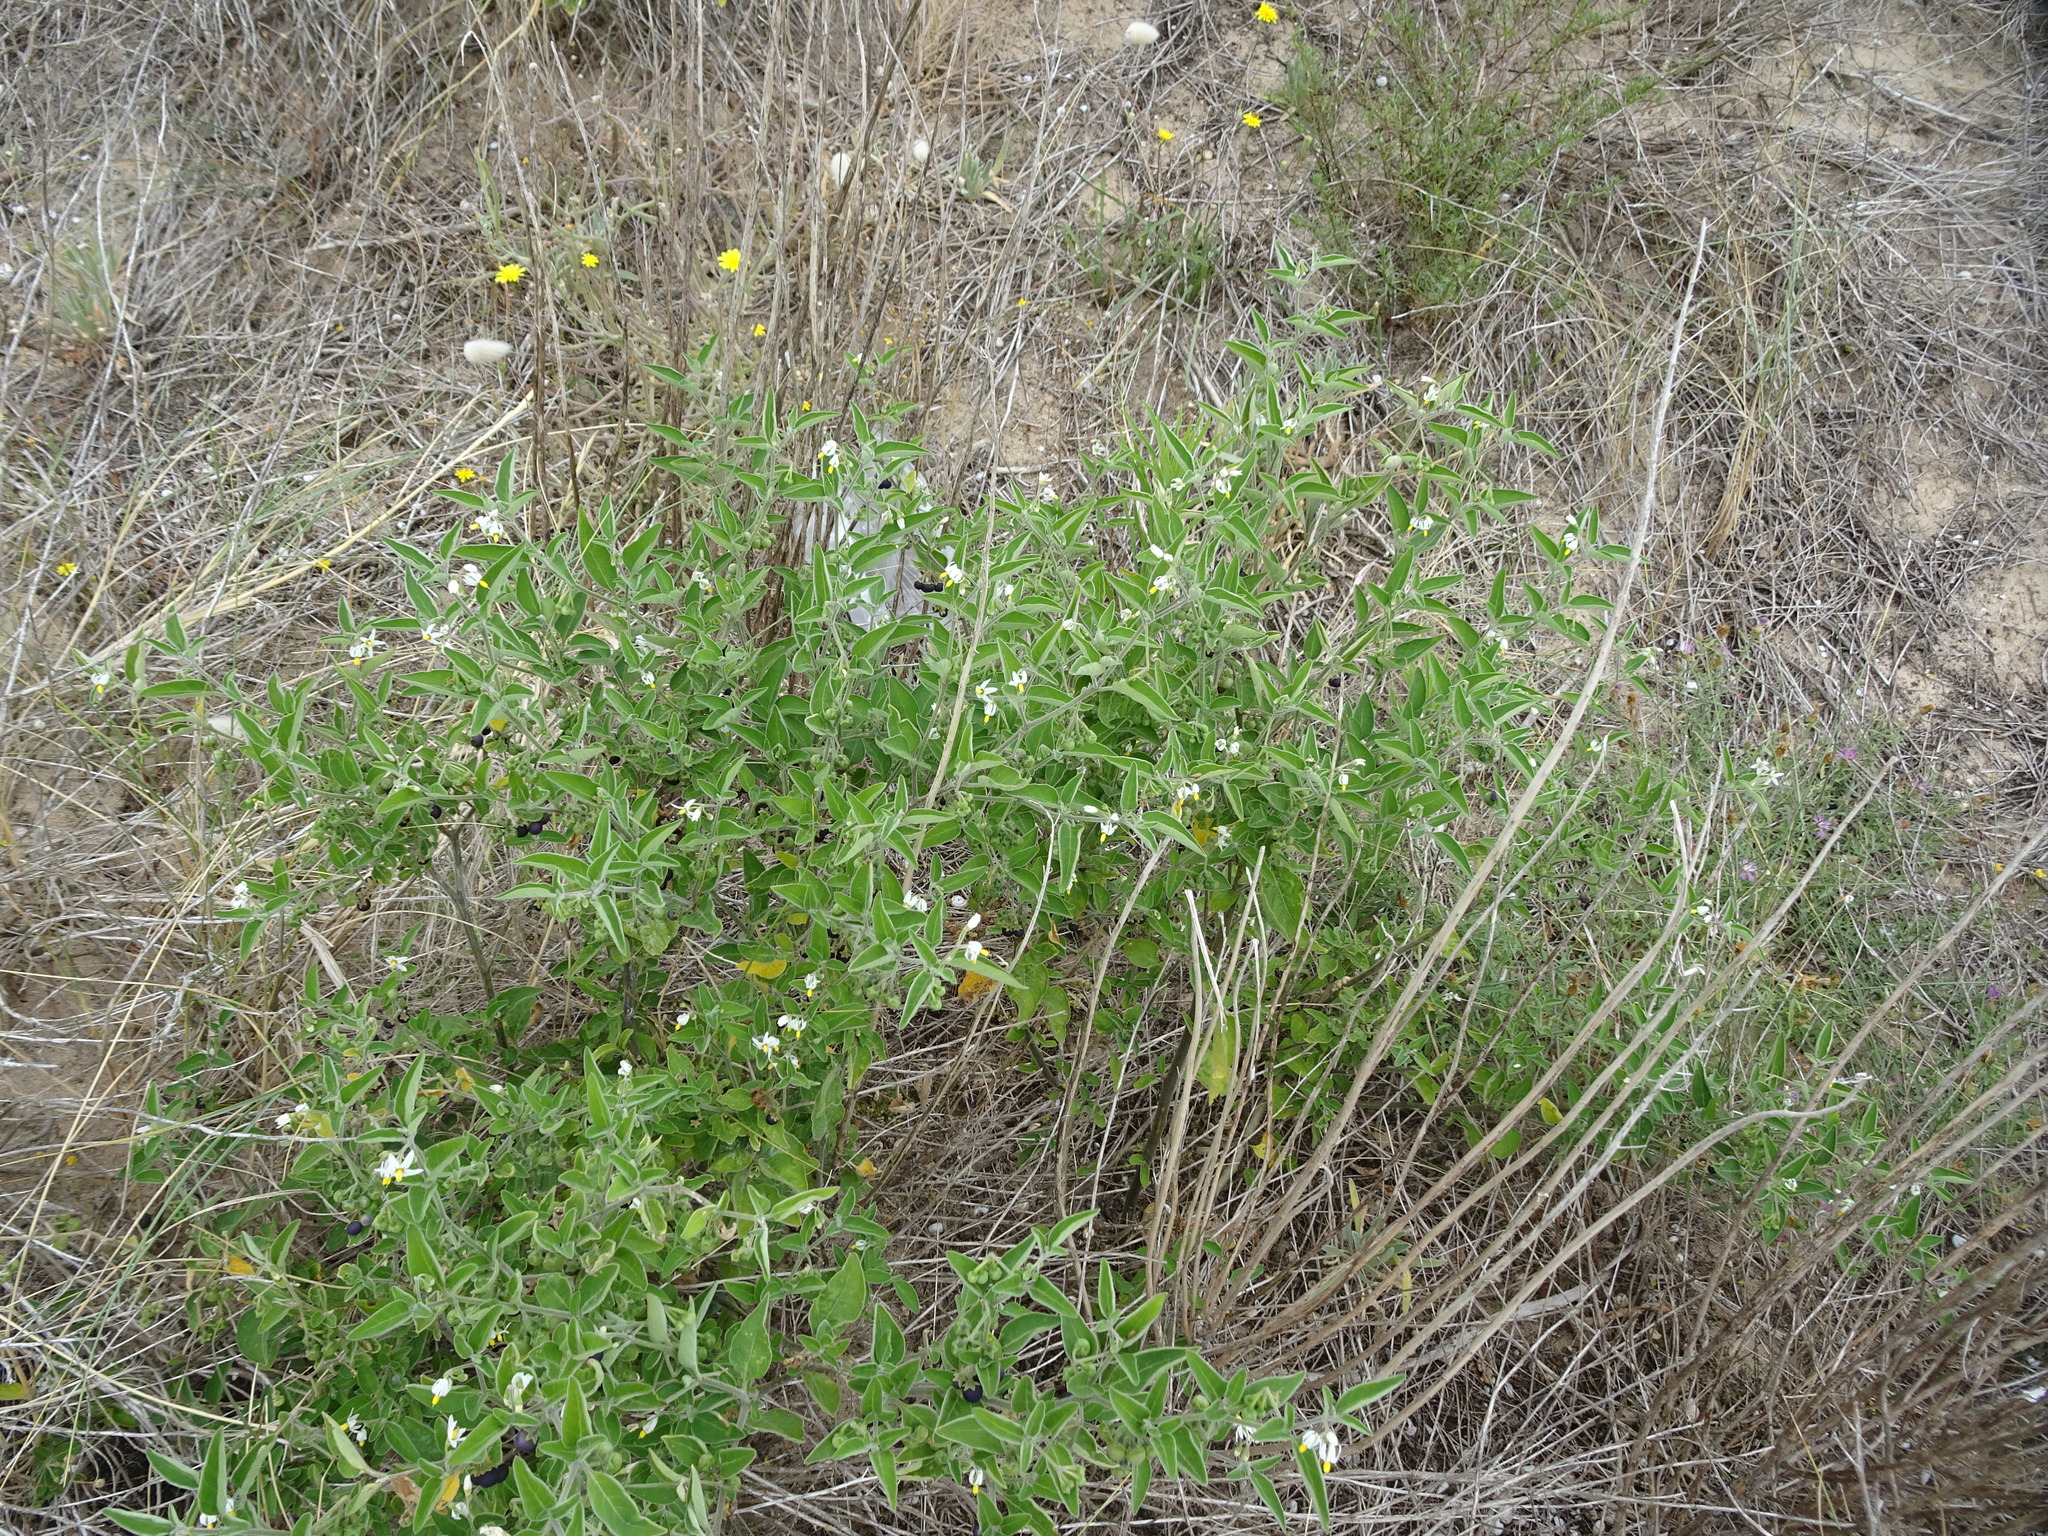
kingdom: Plantae
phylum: Tracheophyta
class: Magnoliopsida
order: Solanales
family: Solanaceae
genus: Solanum
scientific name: Solanum chenopodioides
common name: Tall nightshade
